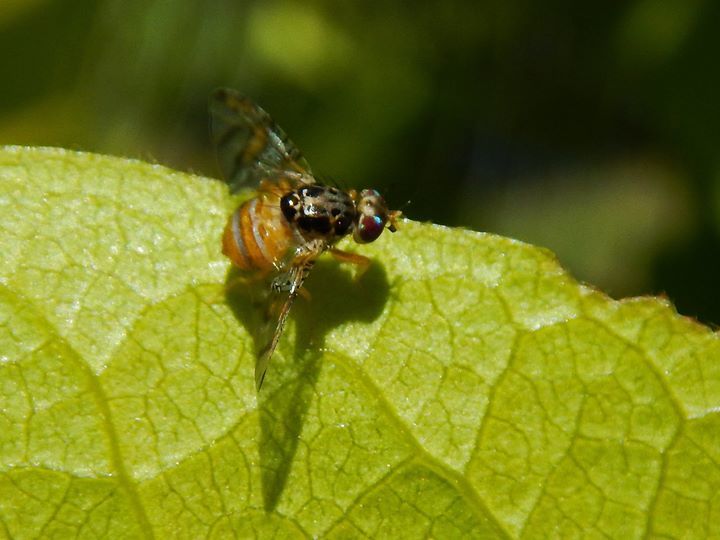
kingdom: Animalia
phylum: Arthropoda
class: Insecta
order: Diptera
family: Tephritidae
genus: Ceratitis
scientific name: Ceratitis capitata
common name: Mediterranean fruit fly
